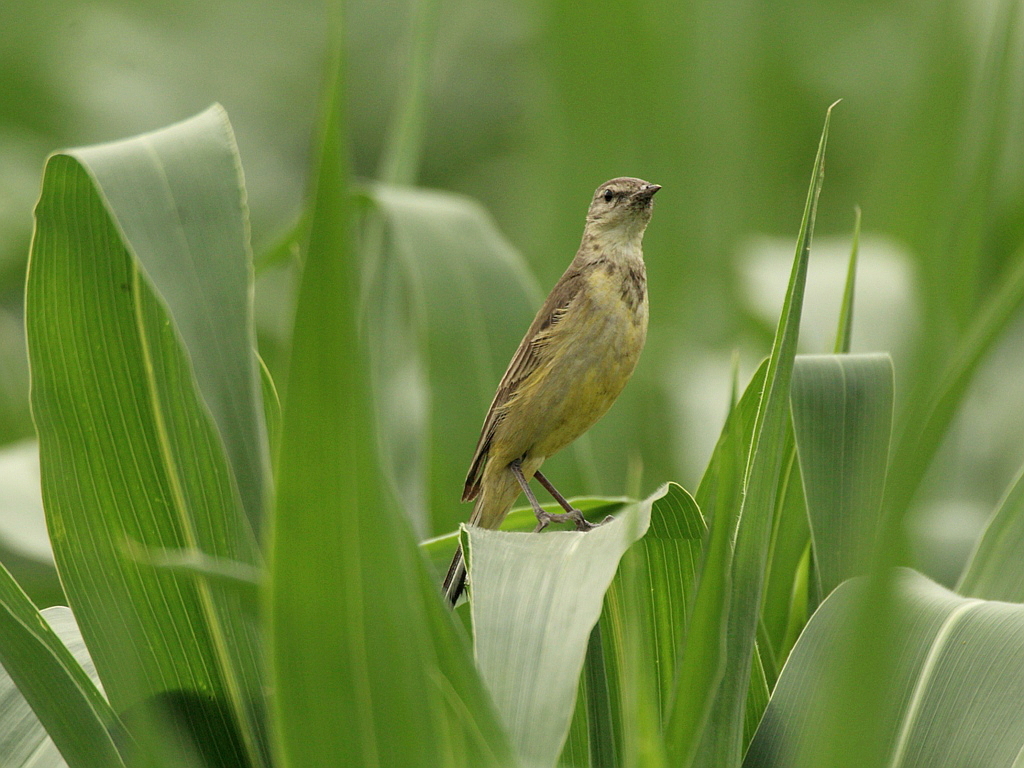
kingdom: Animalia
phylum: Chordata
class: Aves
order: Passeriformes
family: Motacillidae
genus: Motacilla
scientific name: Motacilla flava
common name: Western yellow wagtail
